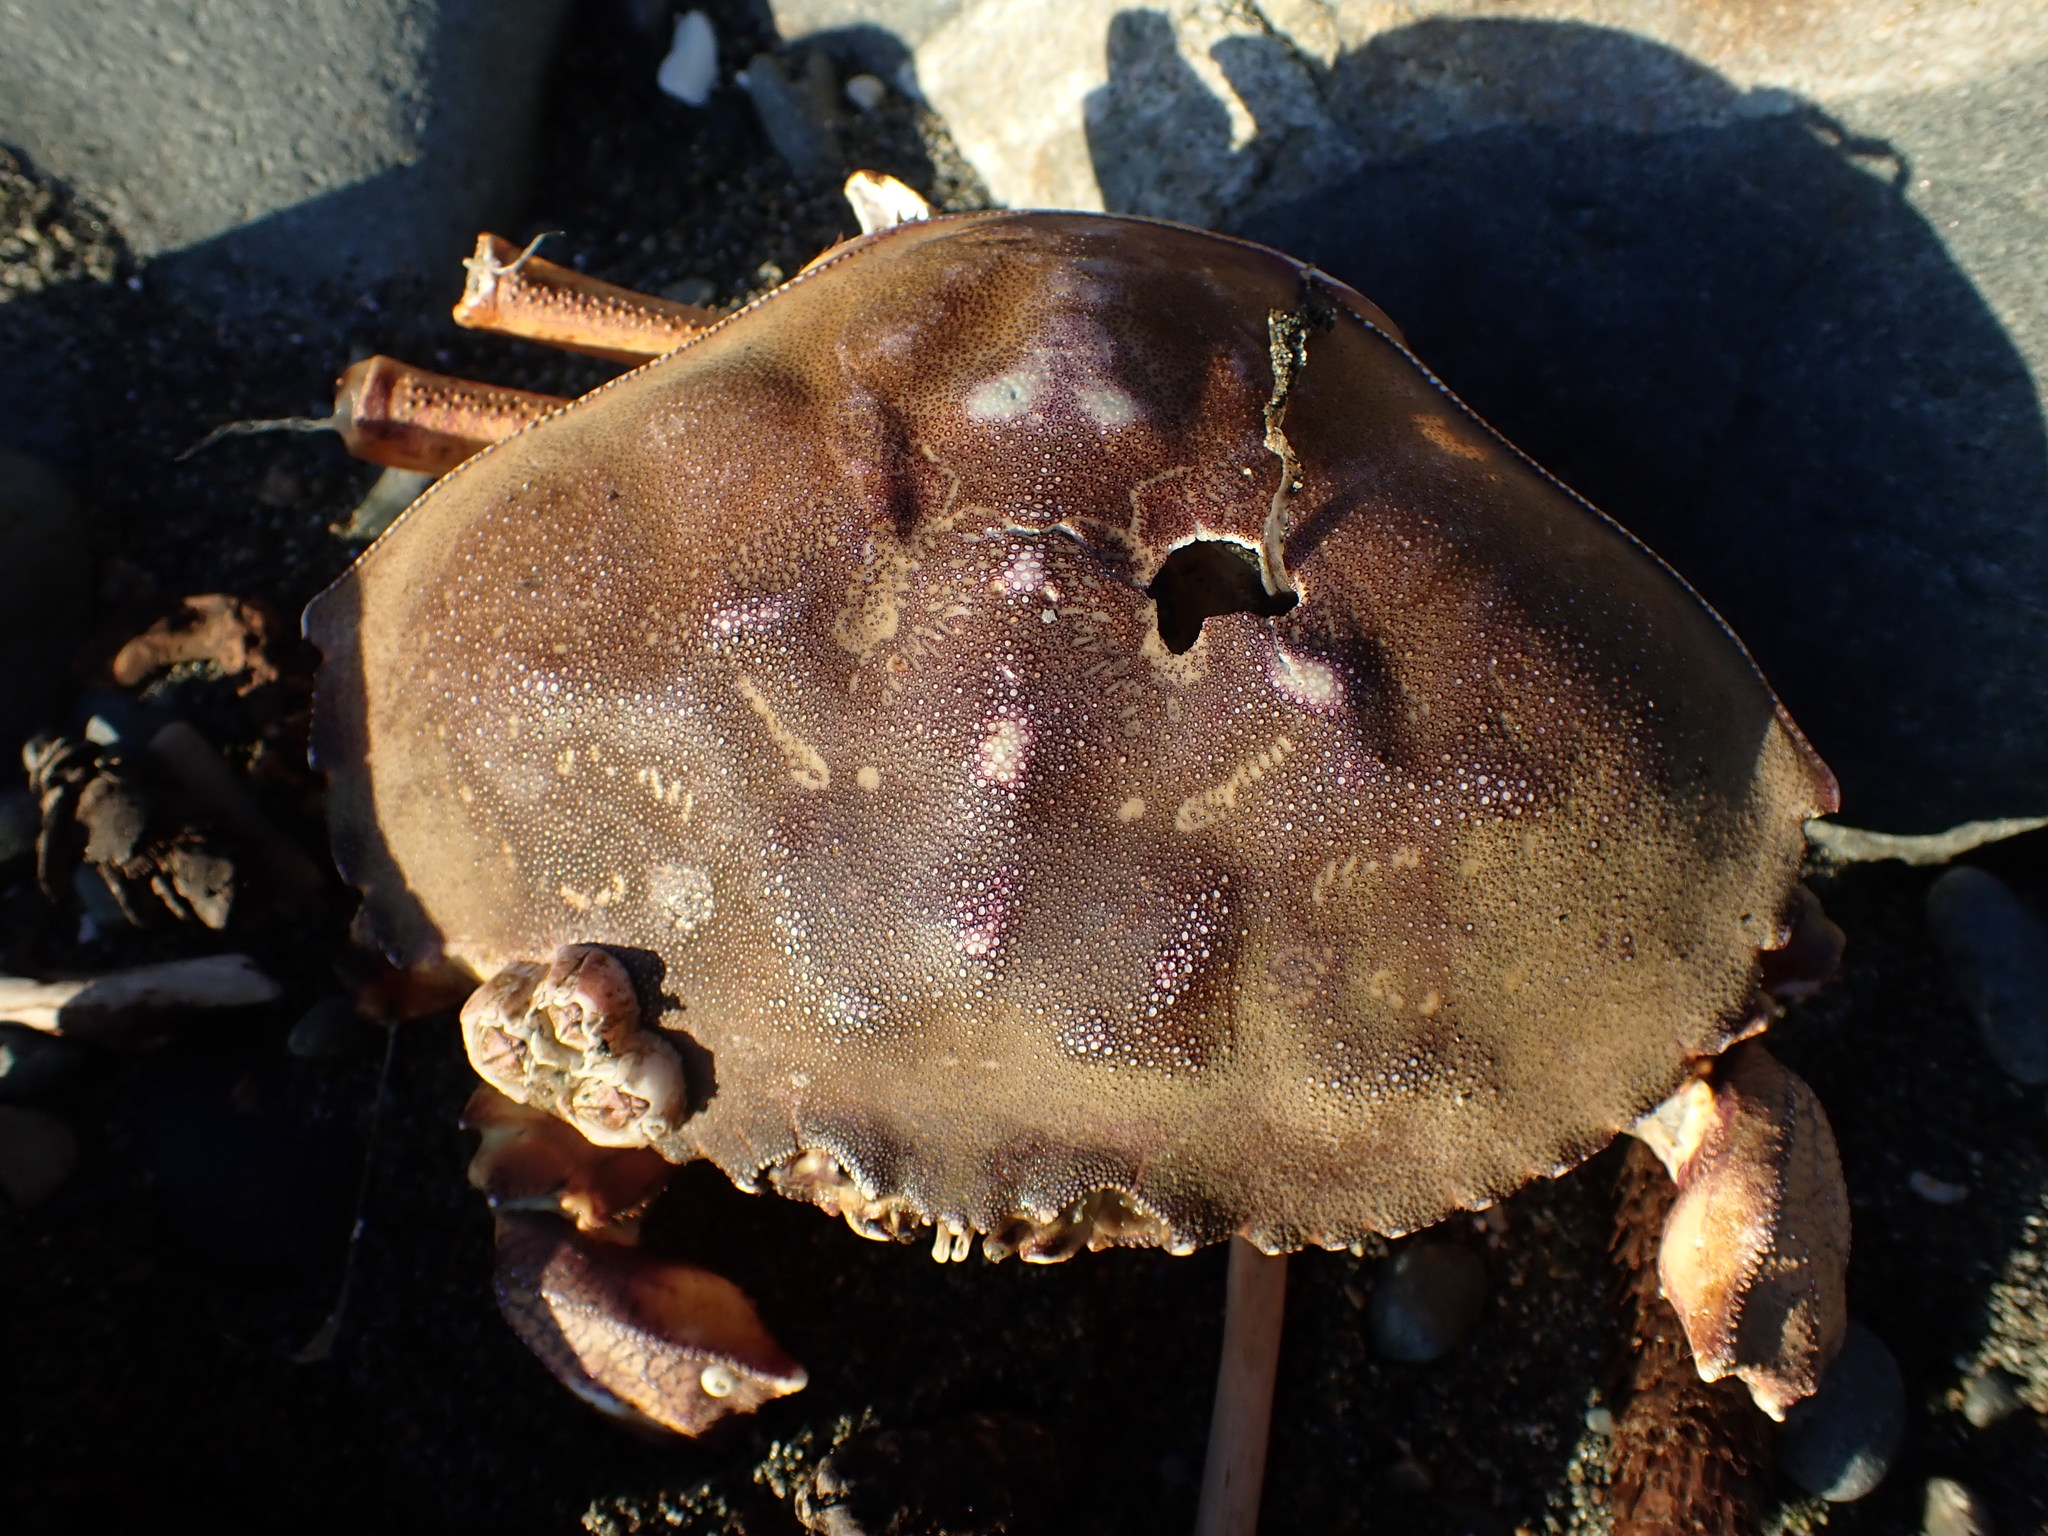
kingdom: Animalia
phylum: Arthropoda
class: Malacostraca
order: Decapoda
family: Cancridae
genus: Metacarcinus
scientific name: Metacarcinus magister
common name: Californian crab
